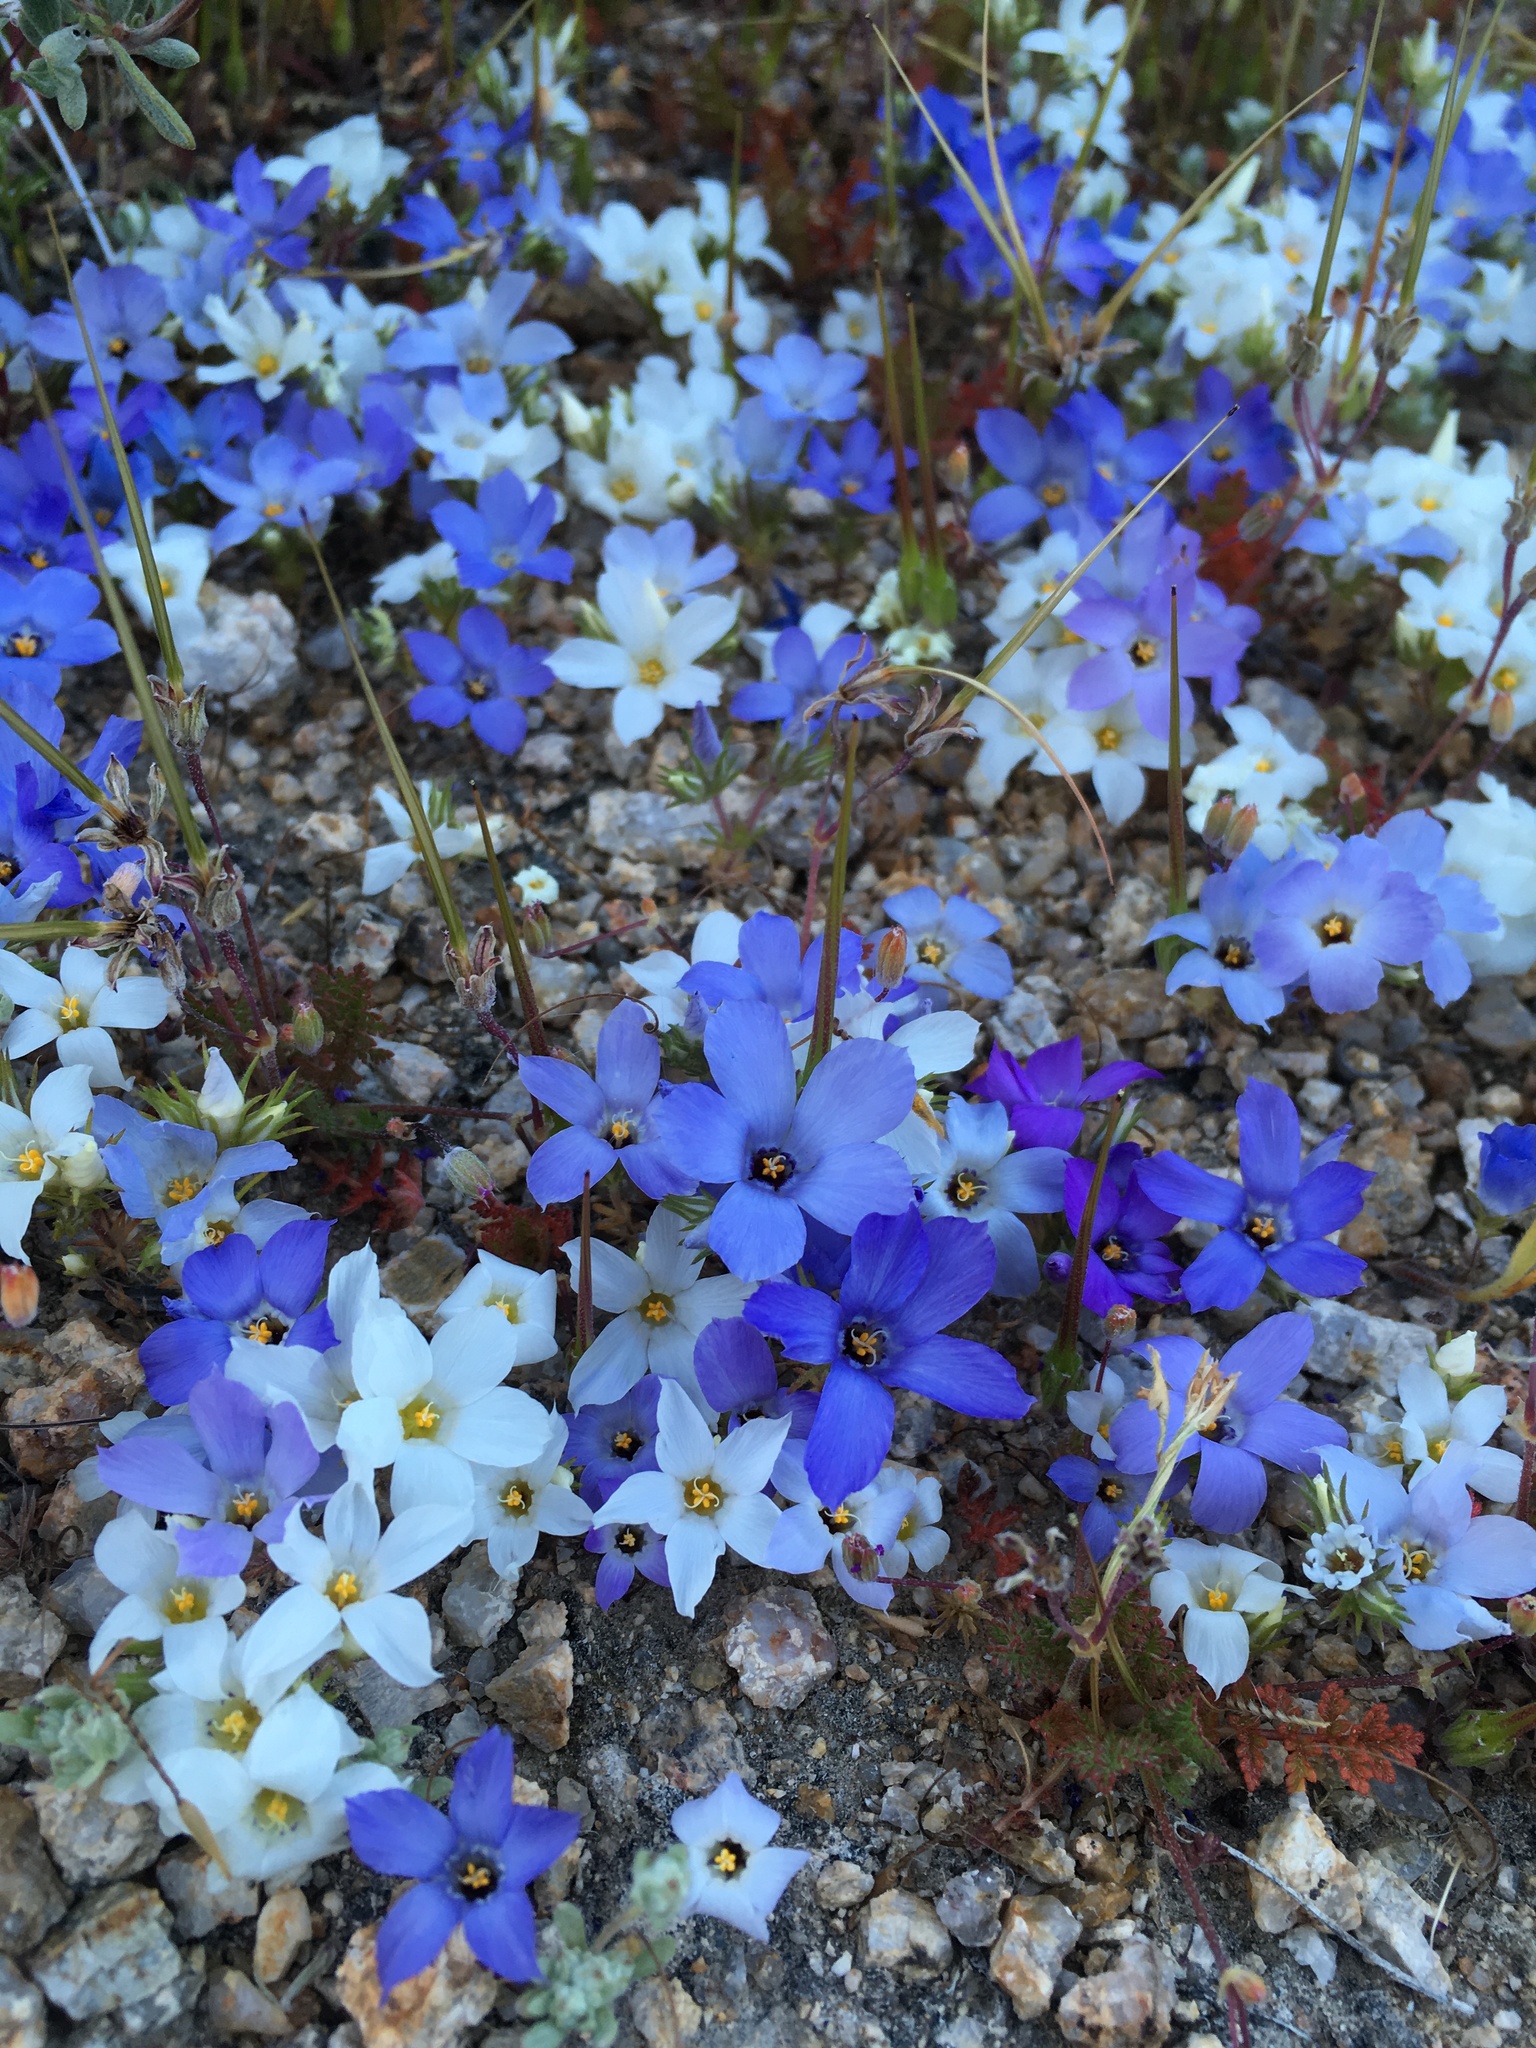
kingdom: Plantae
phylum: Tracheophyta
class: Magnoliopsida
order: Ericales
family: Polemoniaceae
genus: Linanthus
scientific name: Linanthus parryae
